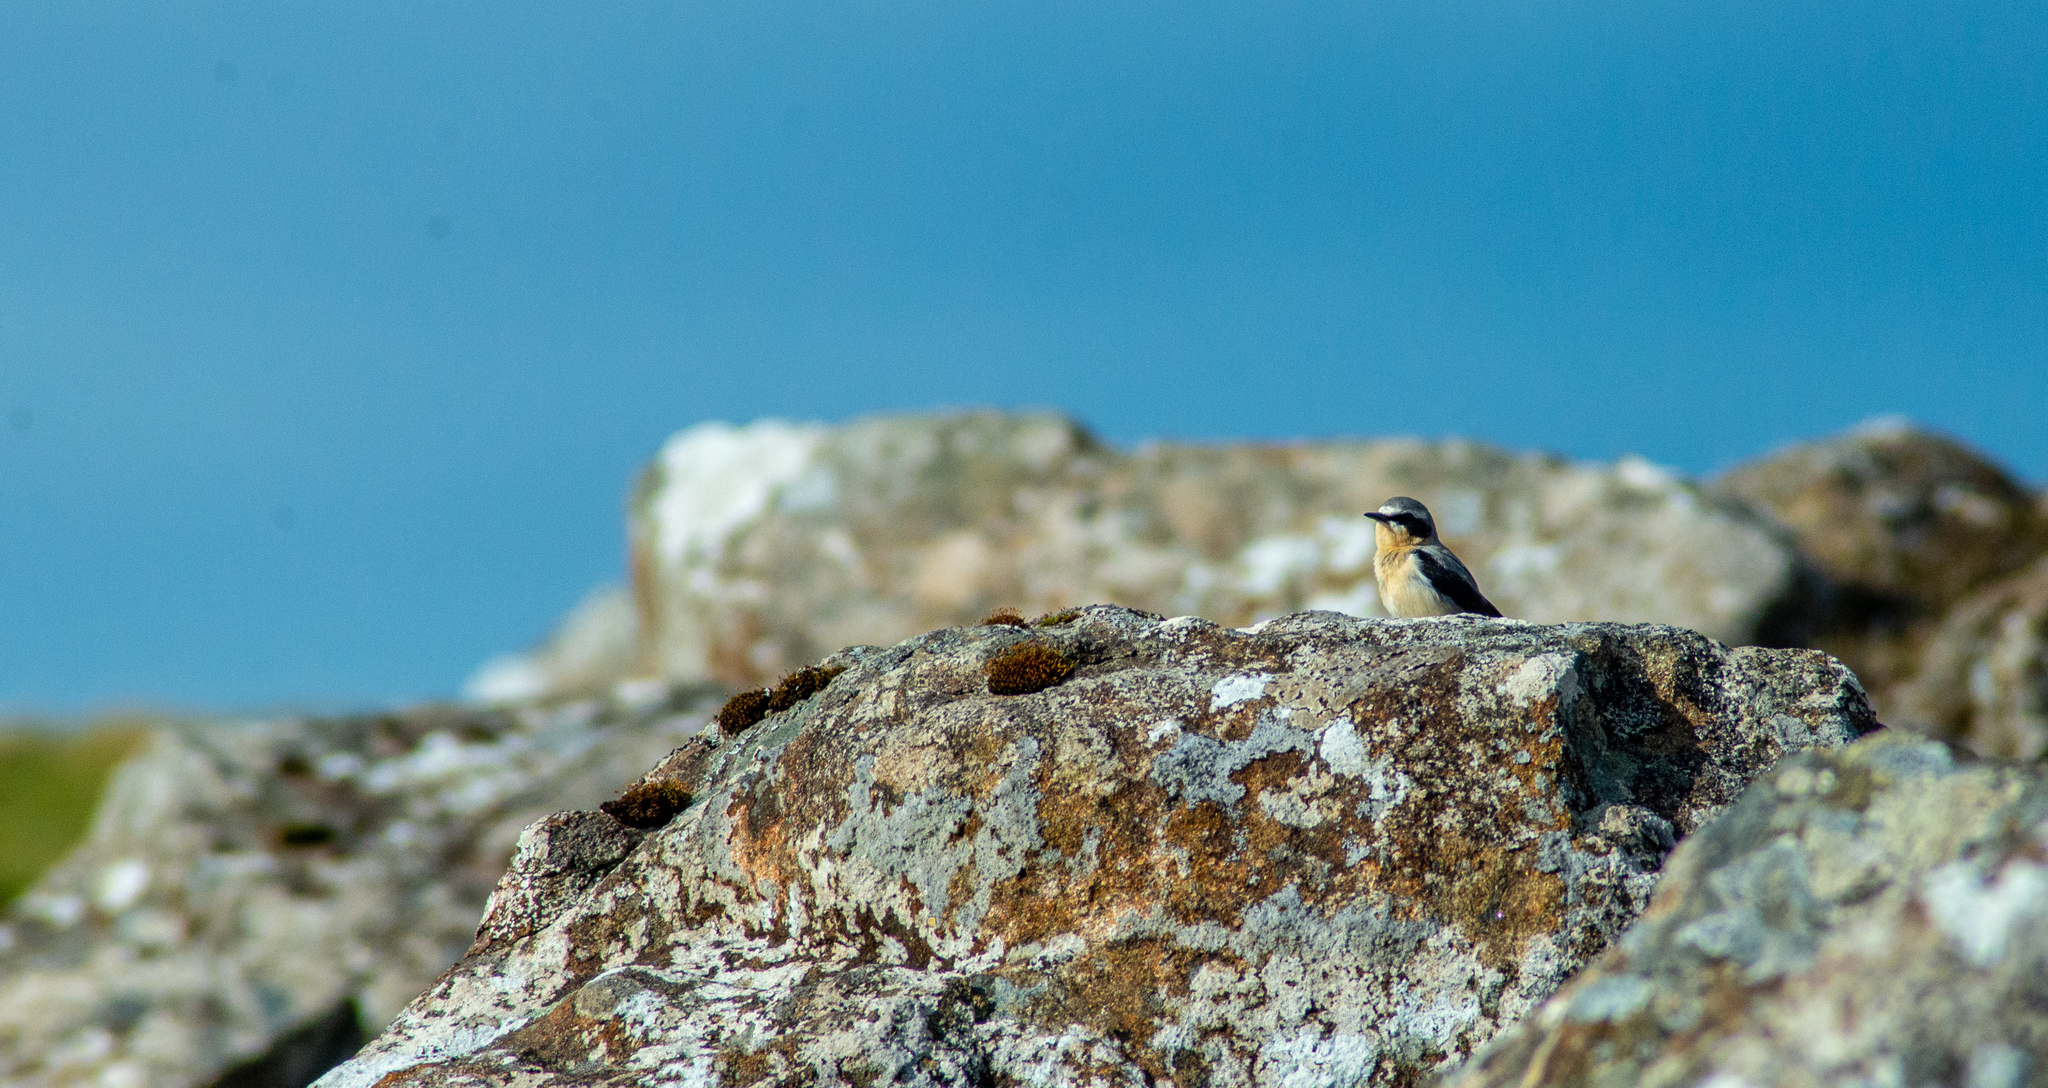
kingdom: Animalia
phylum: Chordata
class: Aves
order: Passeriformes
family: Muscicapidae
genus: Oenanthe
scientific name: Oenanthe oenanthe
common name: Northern wheatear
